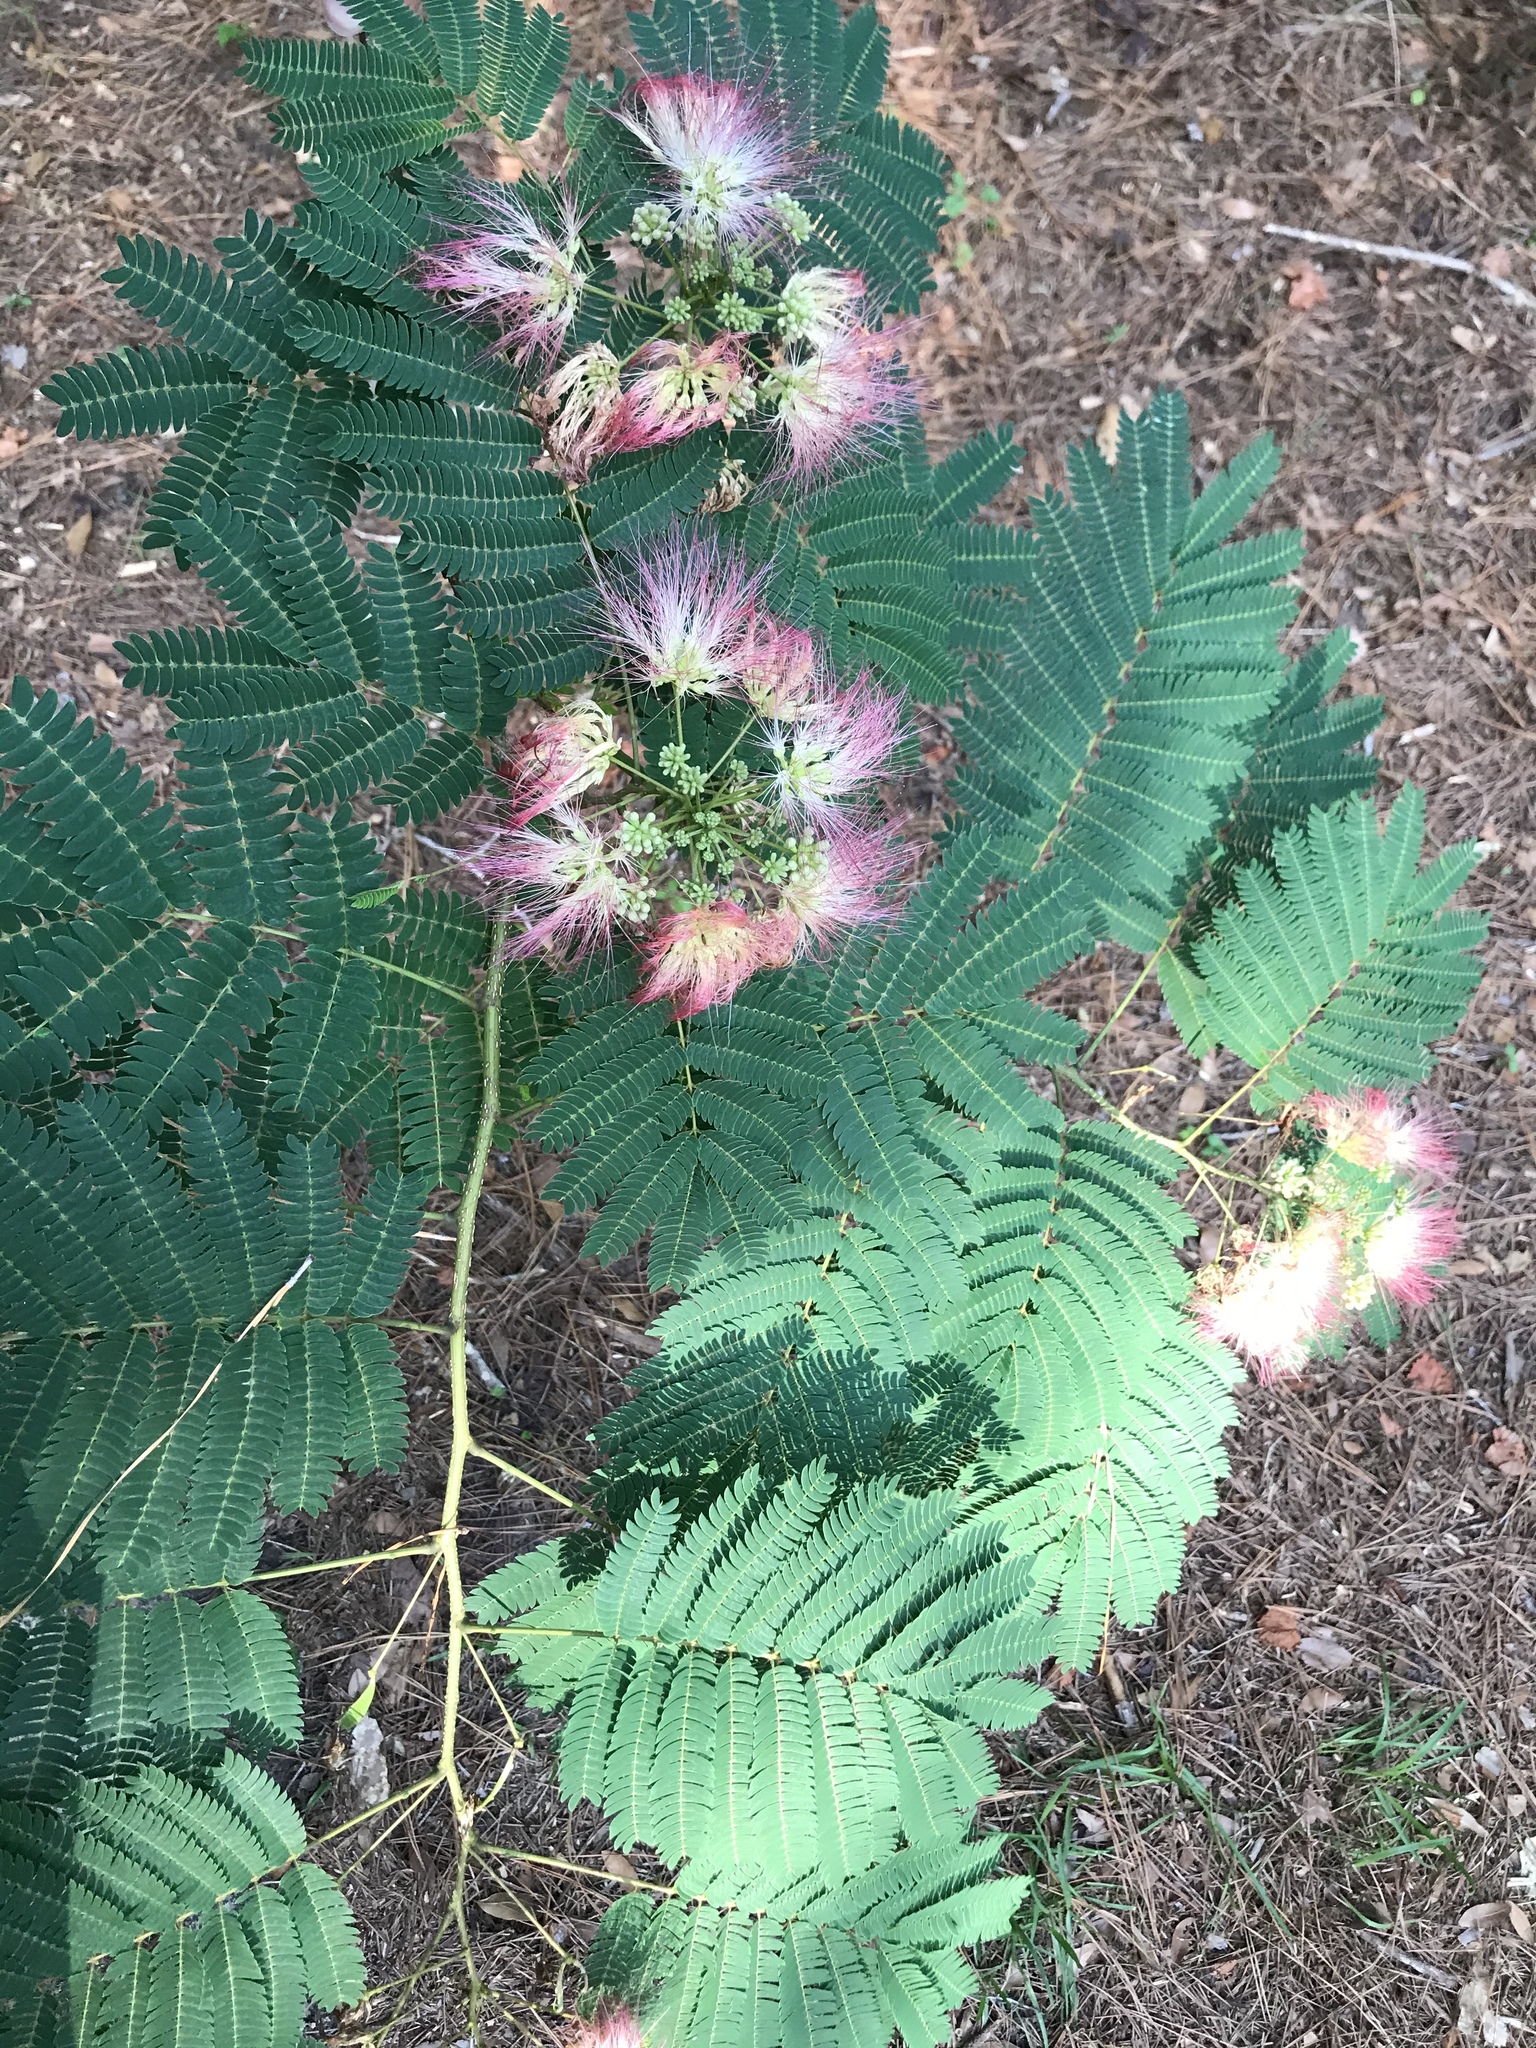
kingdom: Plantae
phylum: Tracheophyta
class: Magnoliopsida
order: Fabales
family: Fabaceae
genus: Albizia
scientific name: Albizia julibrissin
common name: Silktree
